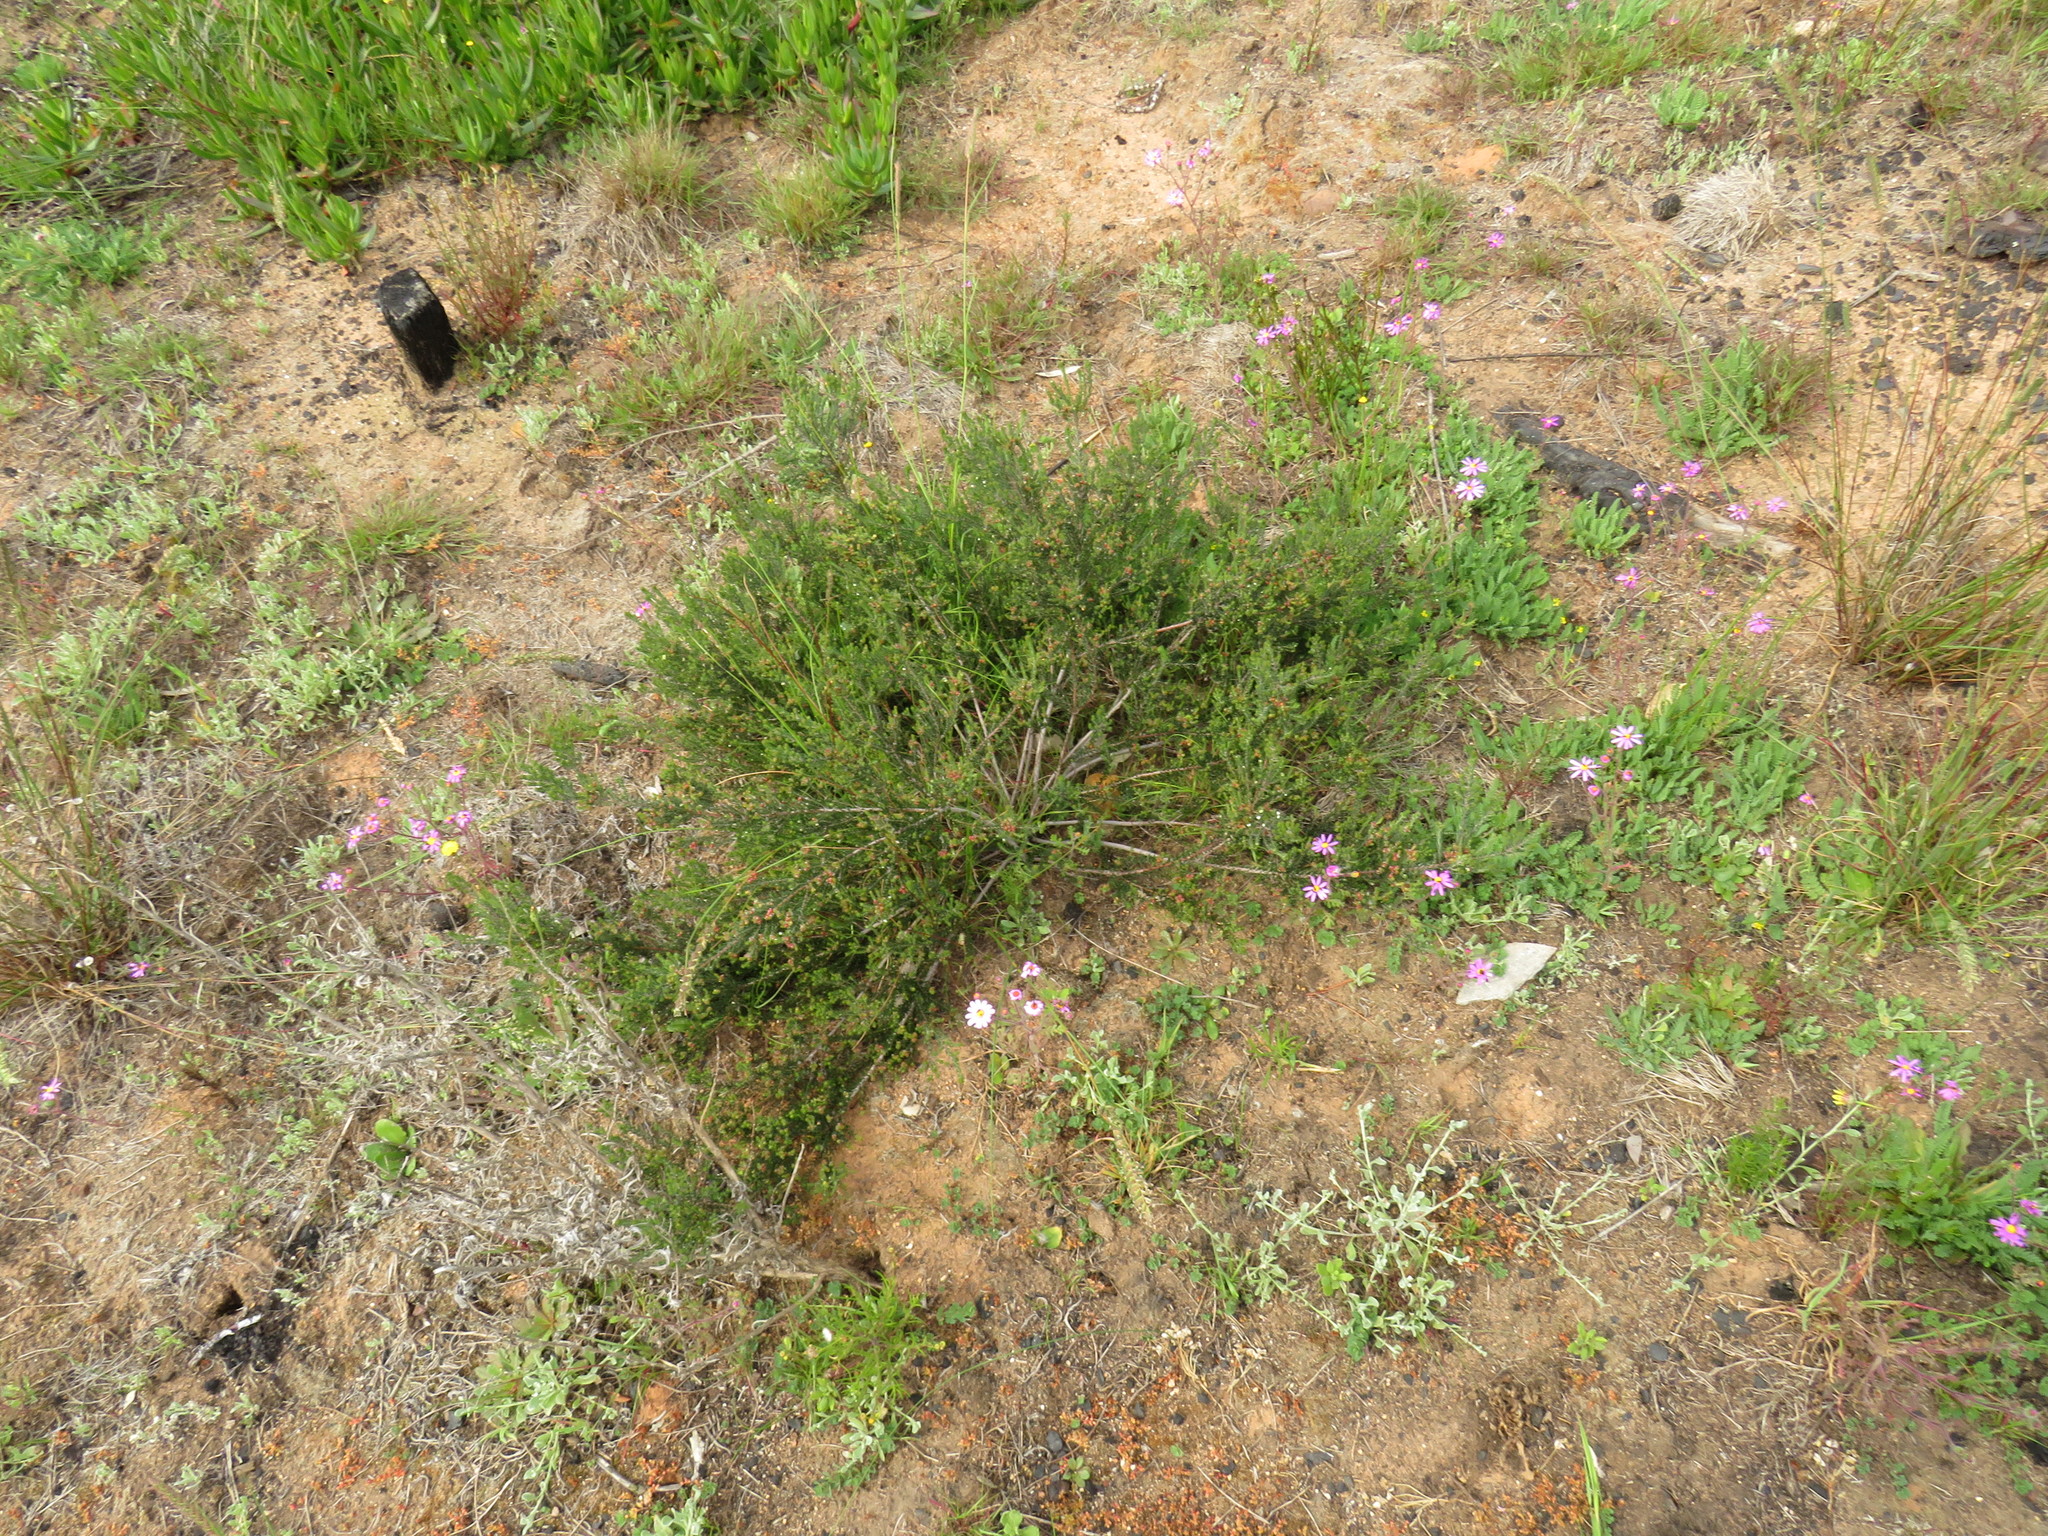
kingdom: Plantae
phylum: Tracheophyta
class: Magnoliopsida
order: Rosales
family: Rhamnaceae
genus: Phylica
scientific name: Phylica ericoides
